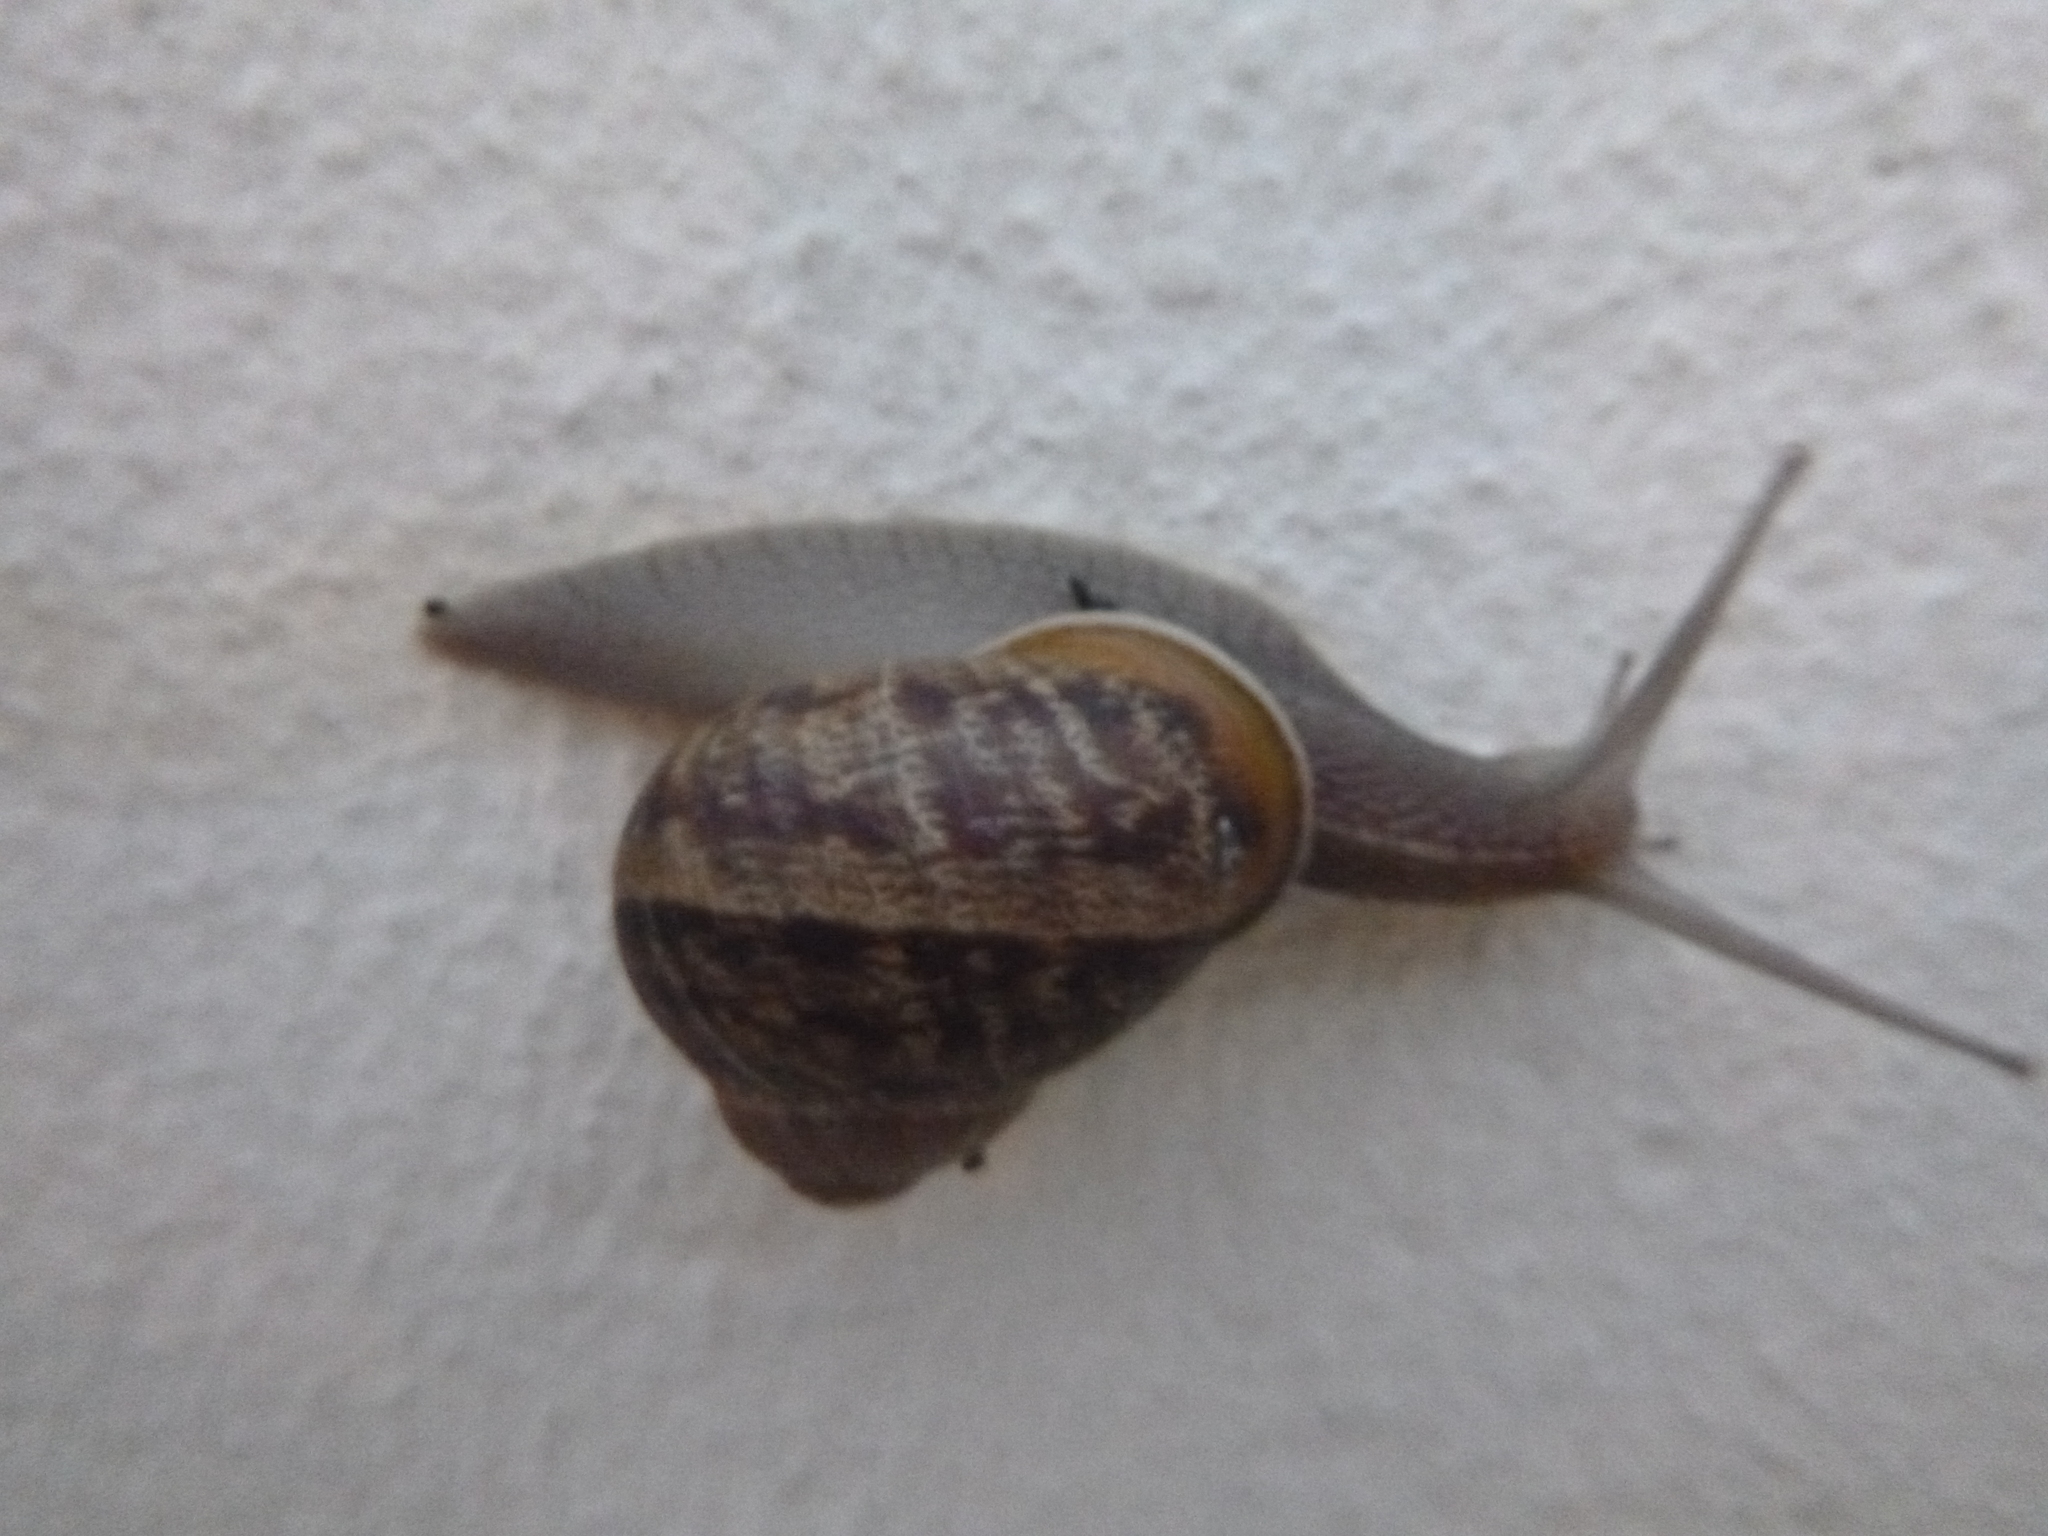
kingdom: Animalia
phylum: Mollusca
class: Gastropoda
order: Stylommatophora
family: Helicidae
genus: Cornu
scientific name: Cornu aspersum
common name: Brown garden snail
